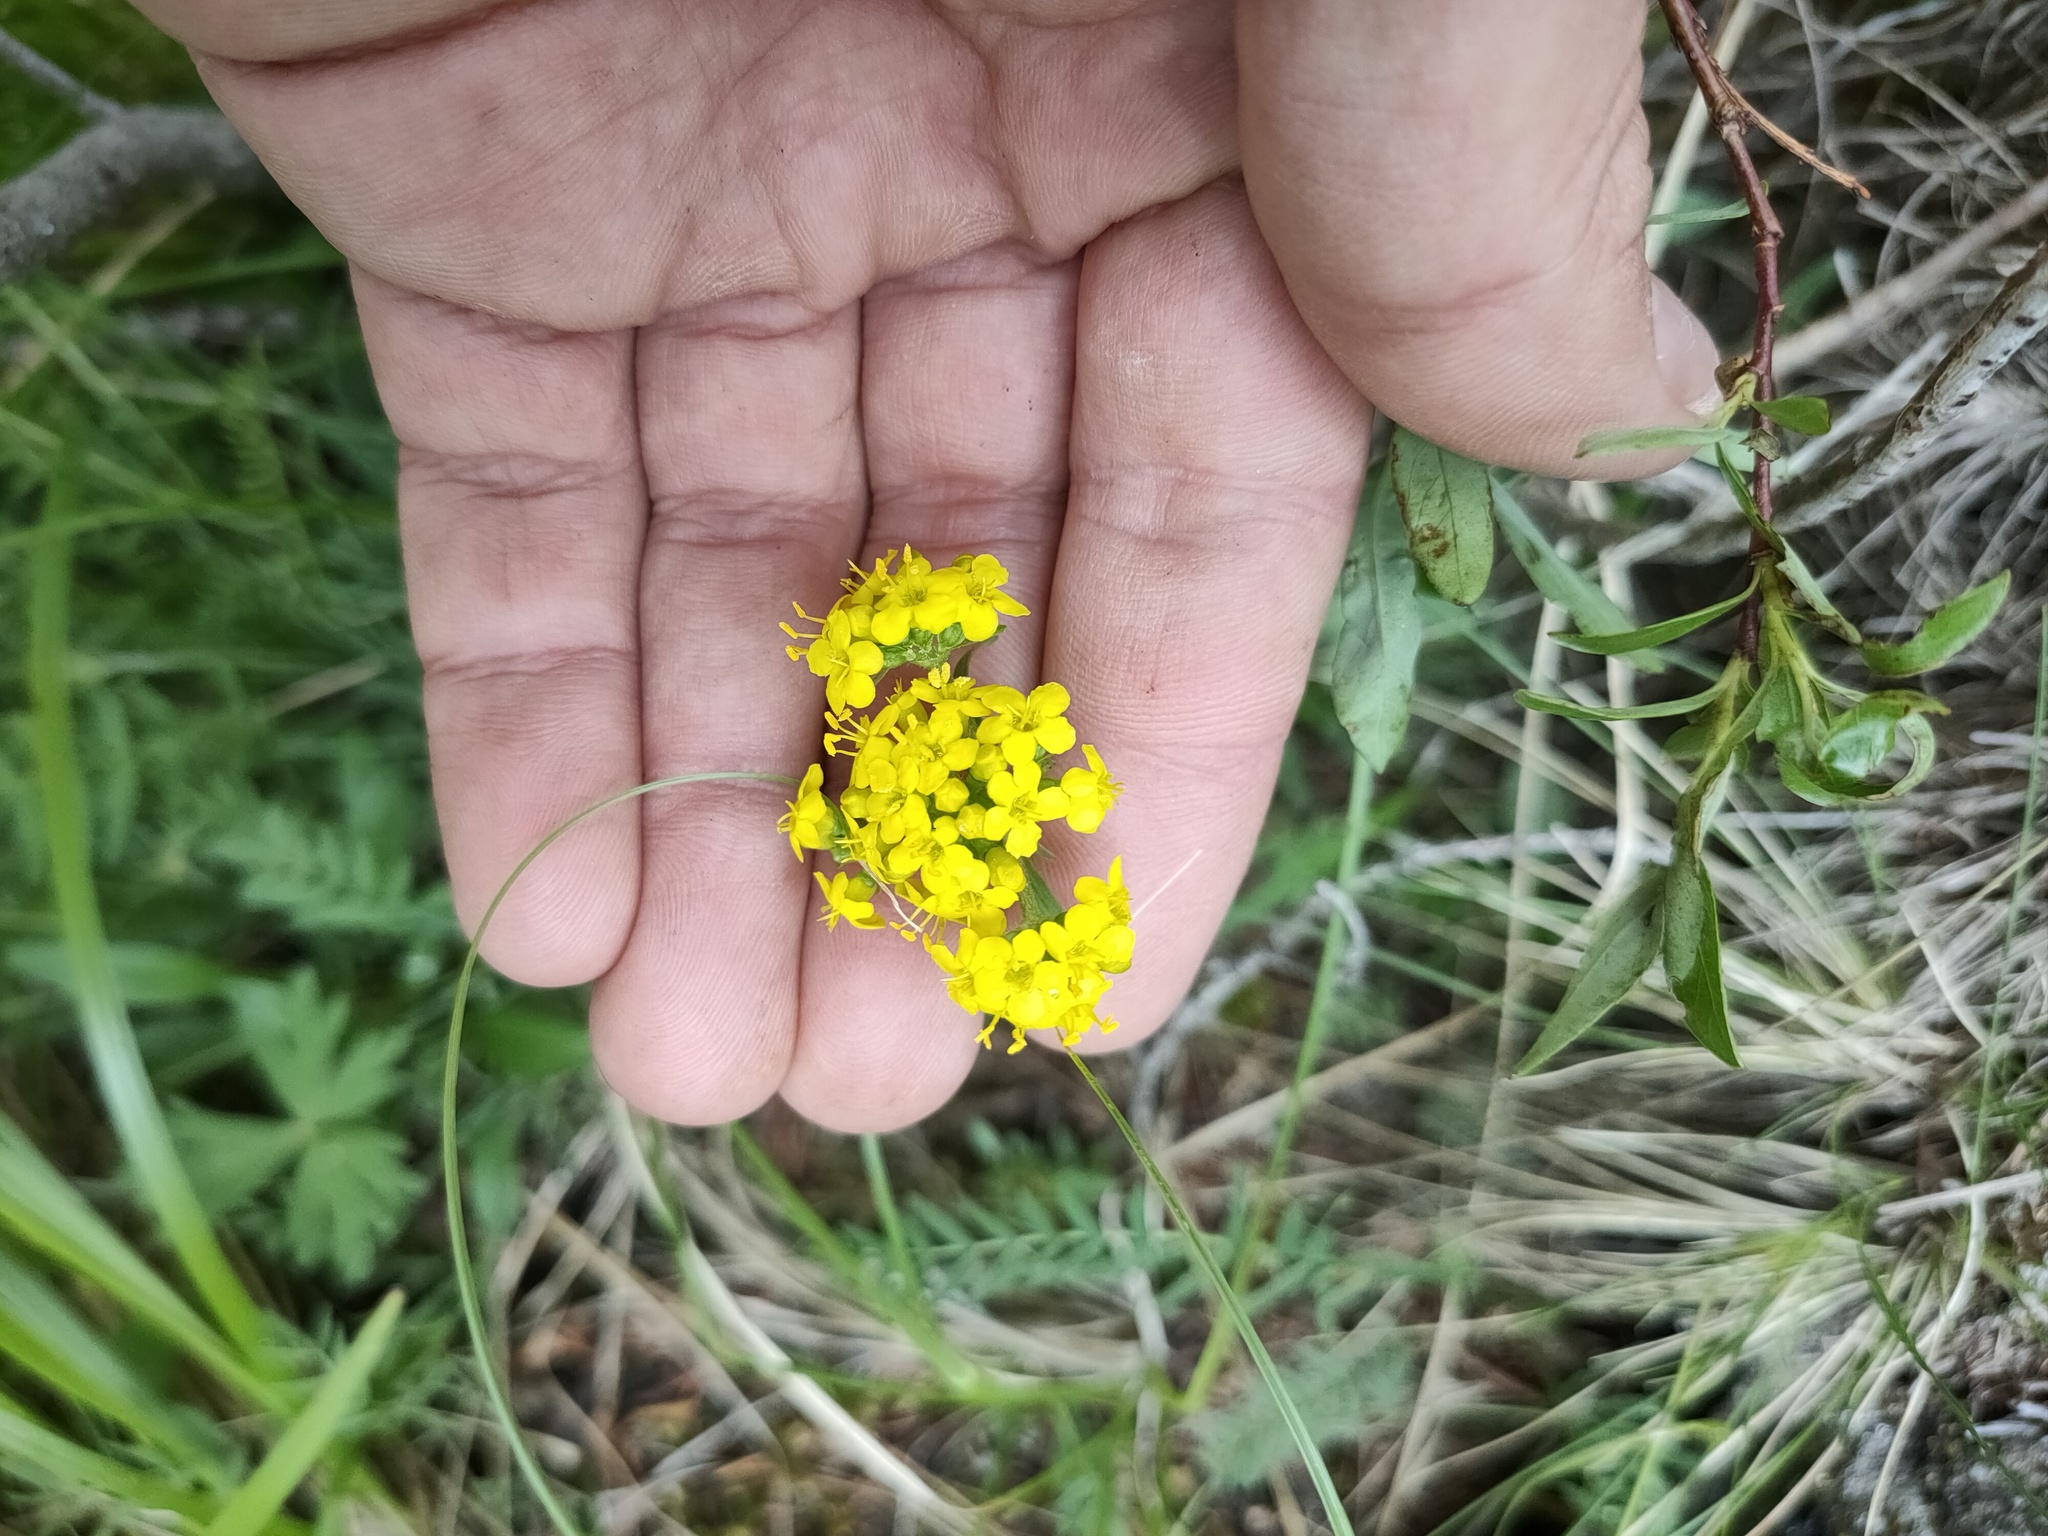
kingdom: Plantae
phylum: Tracheophyta
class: Magnoliopsida
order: Dipsacales
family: Caprifoliaceae
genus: Patrinia
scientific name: Patrinia sibirica
